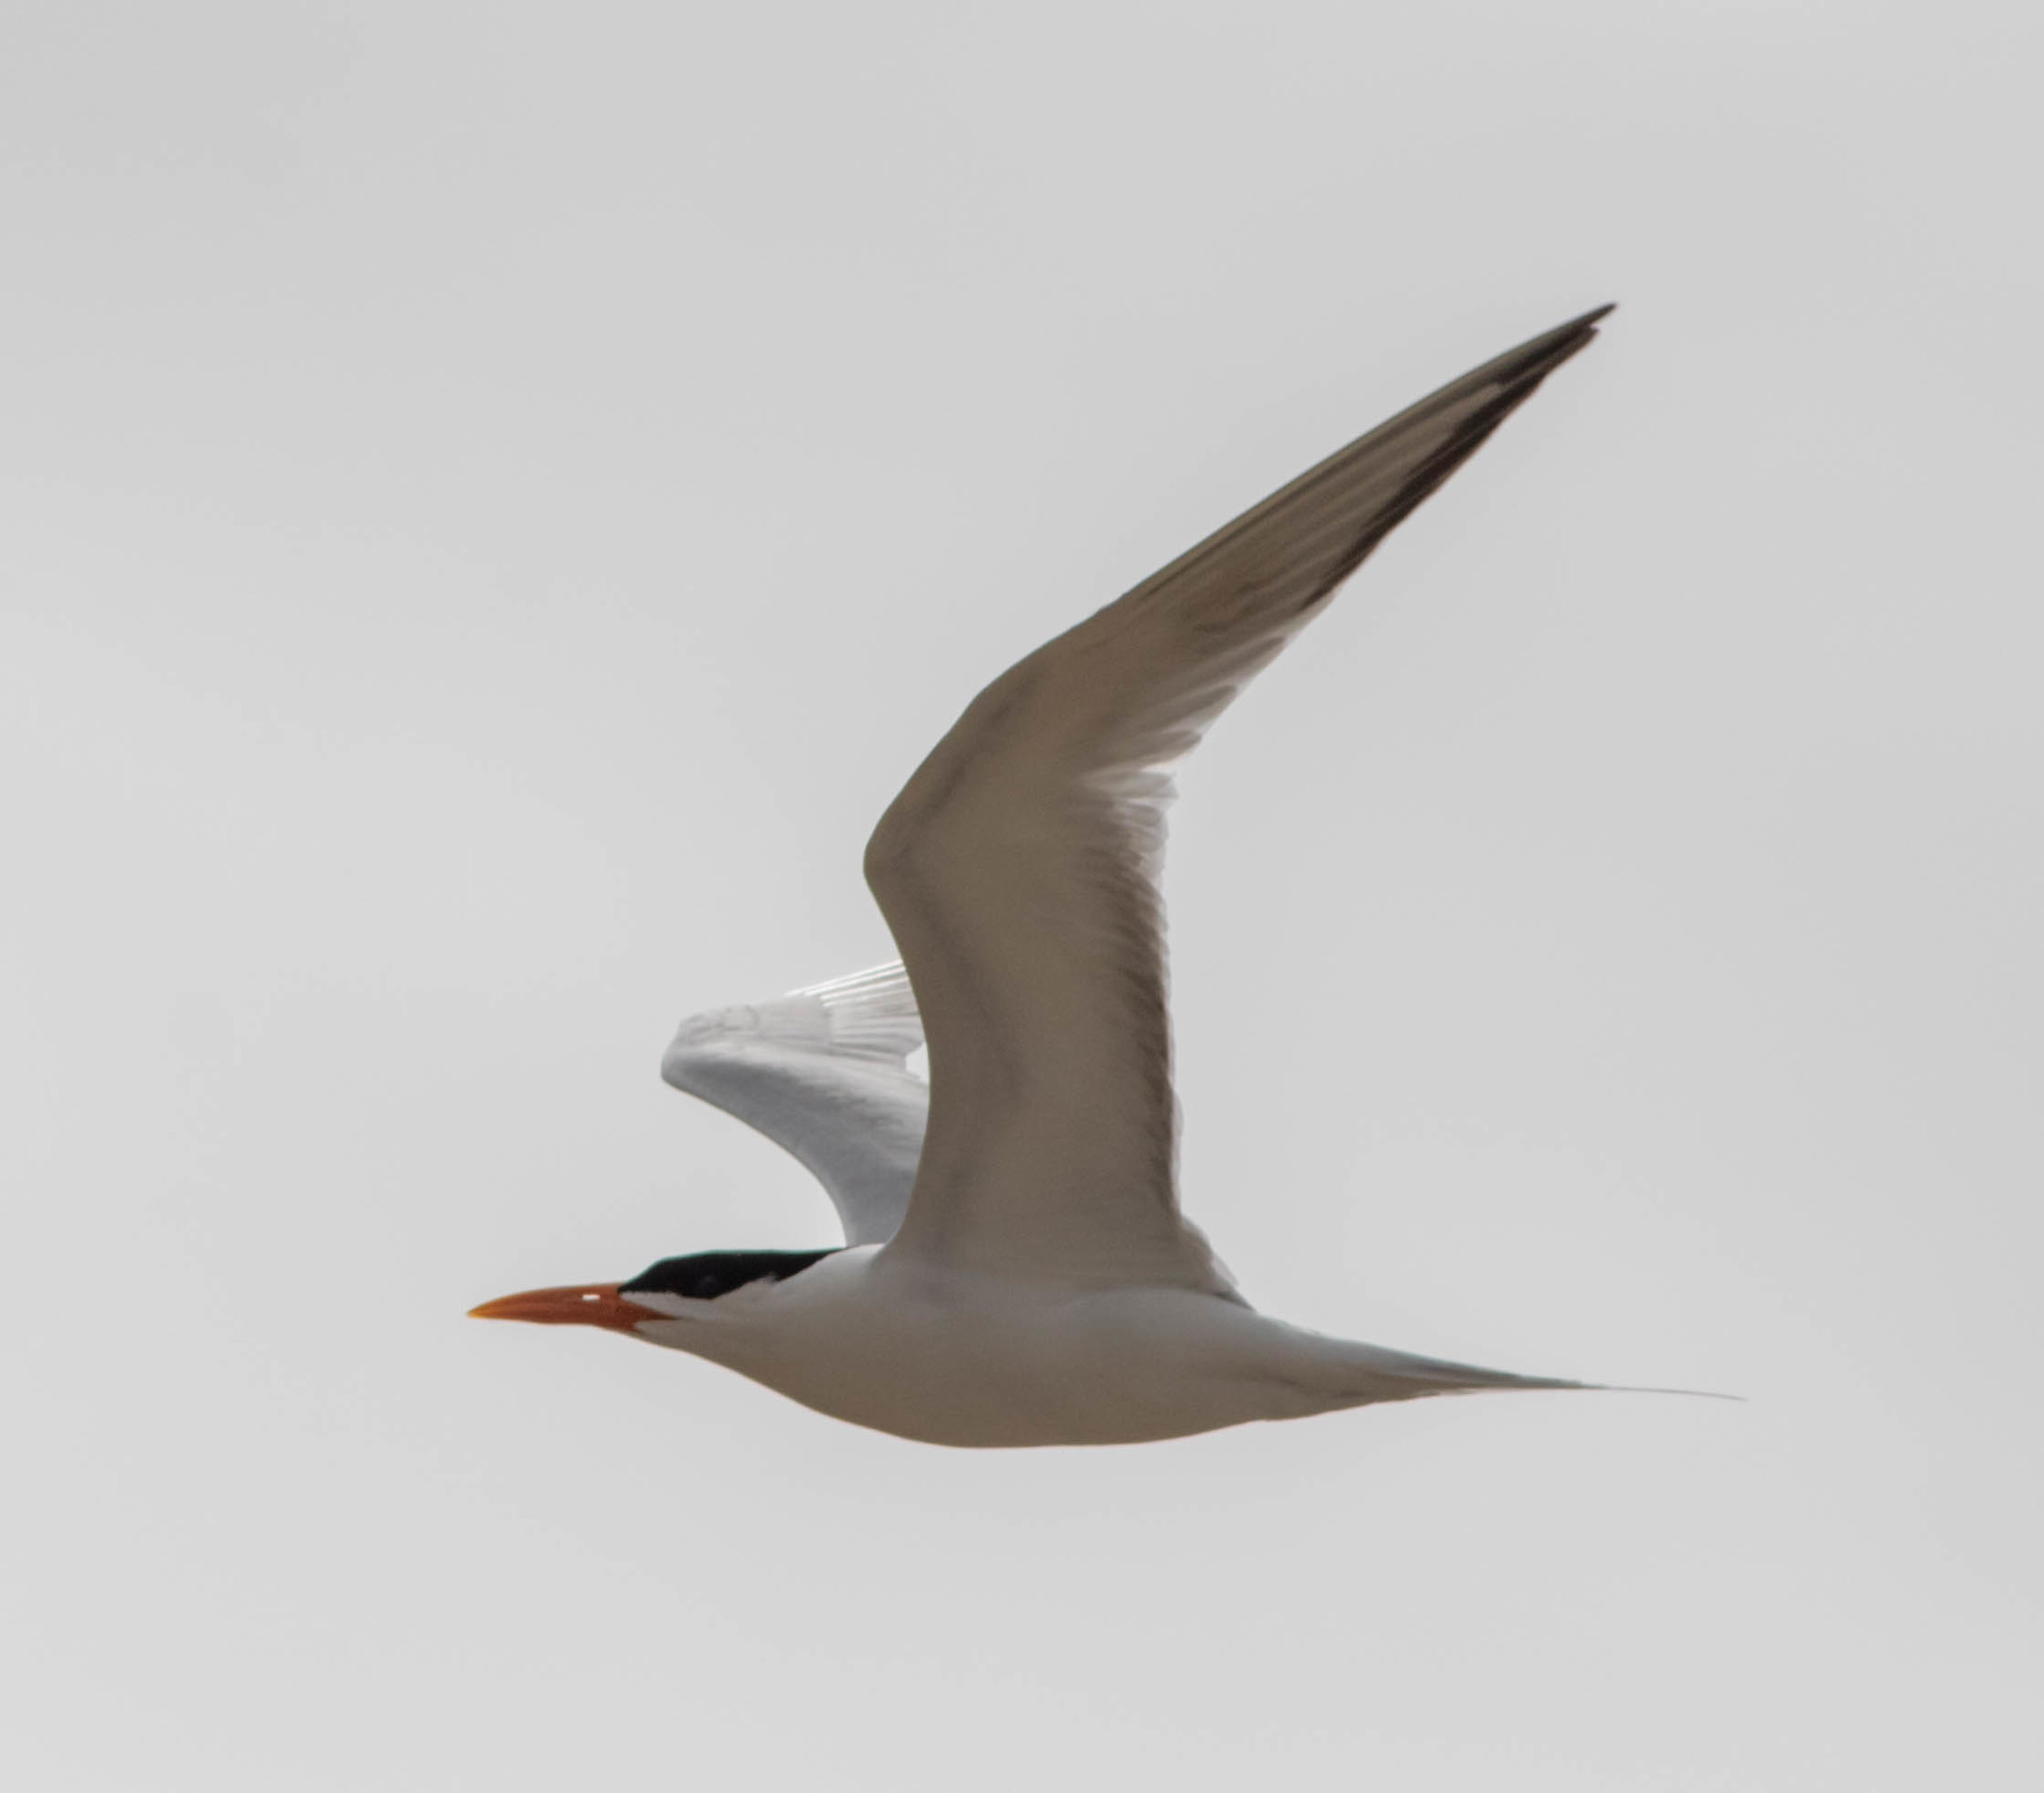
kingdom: Animalia
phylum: Chordata
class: Aves
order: Charadriiformes
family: Laridae
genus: Thalasseus
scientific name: Thalasseus maximus
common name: Royal tern
